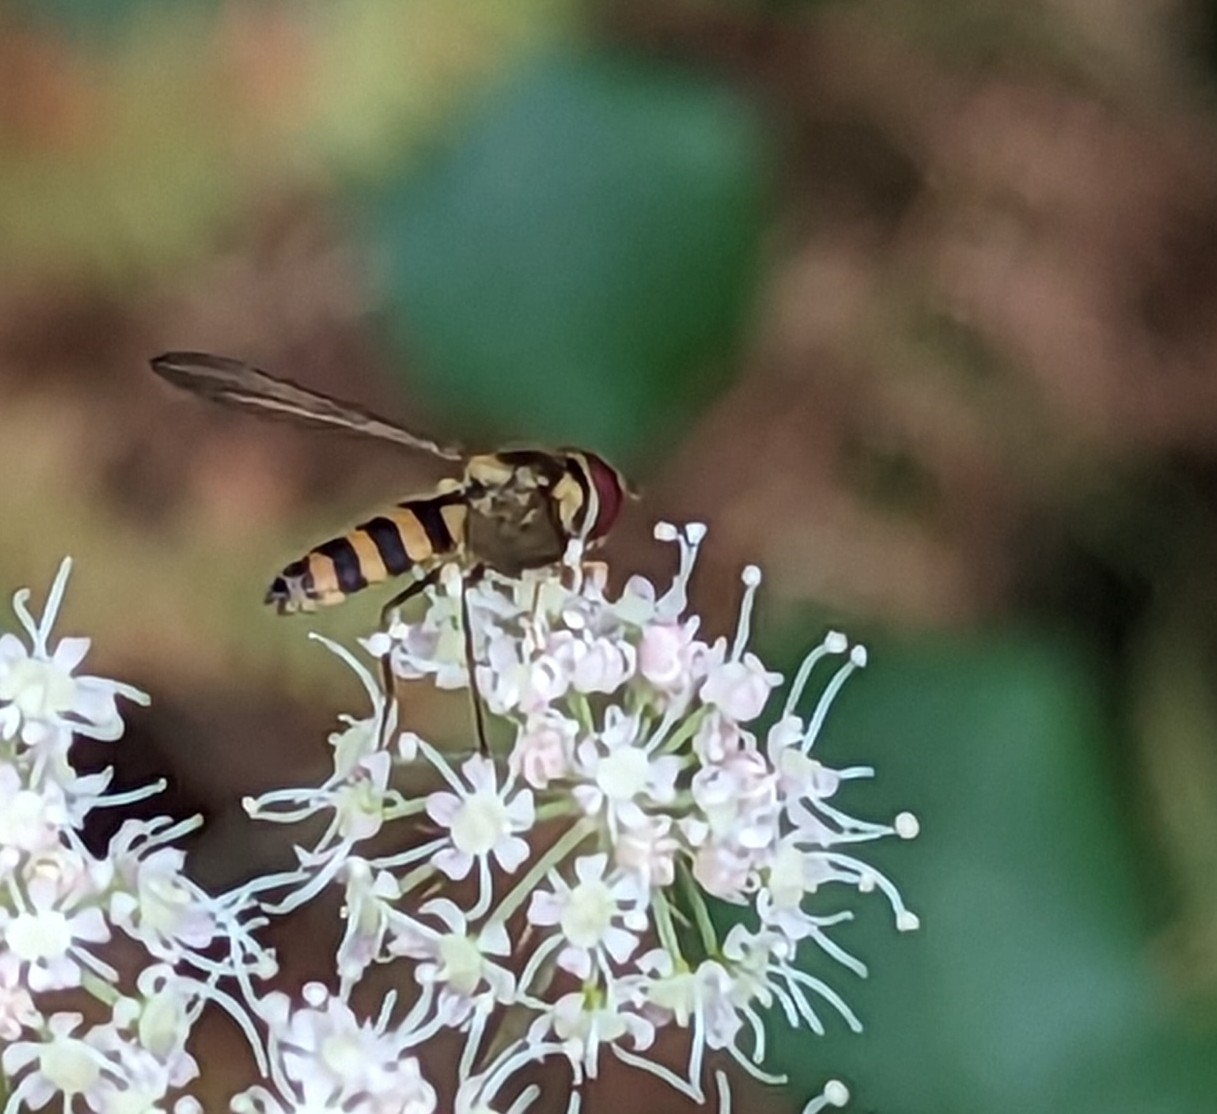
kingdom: Animalia
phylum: Arthropoda
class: Insecta
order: Diptera
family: Syrphidae
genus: Meliscaeva
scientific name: Meliscaeva cinctella
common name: American thintail fly
